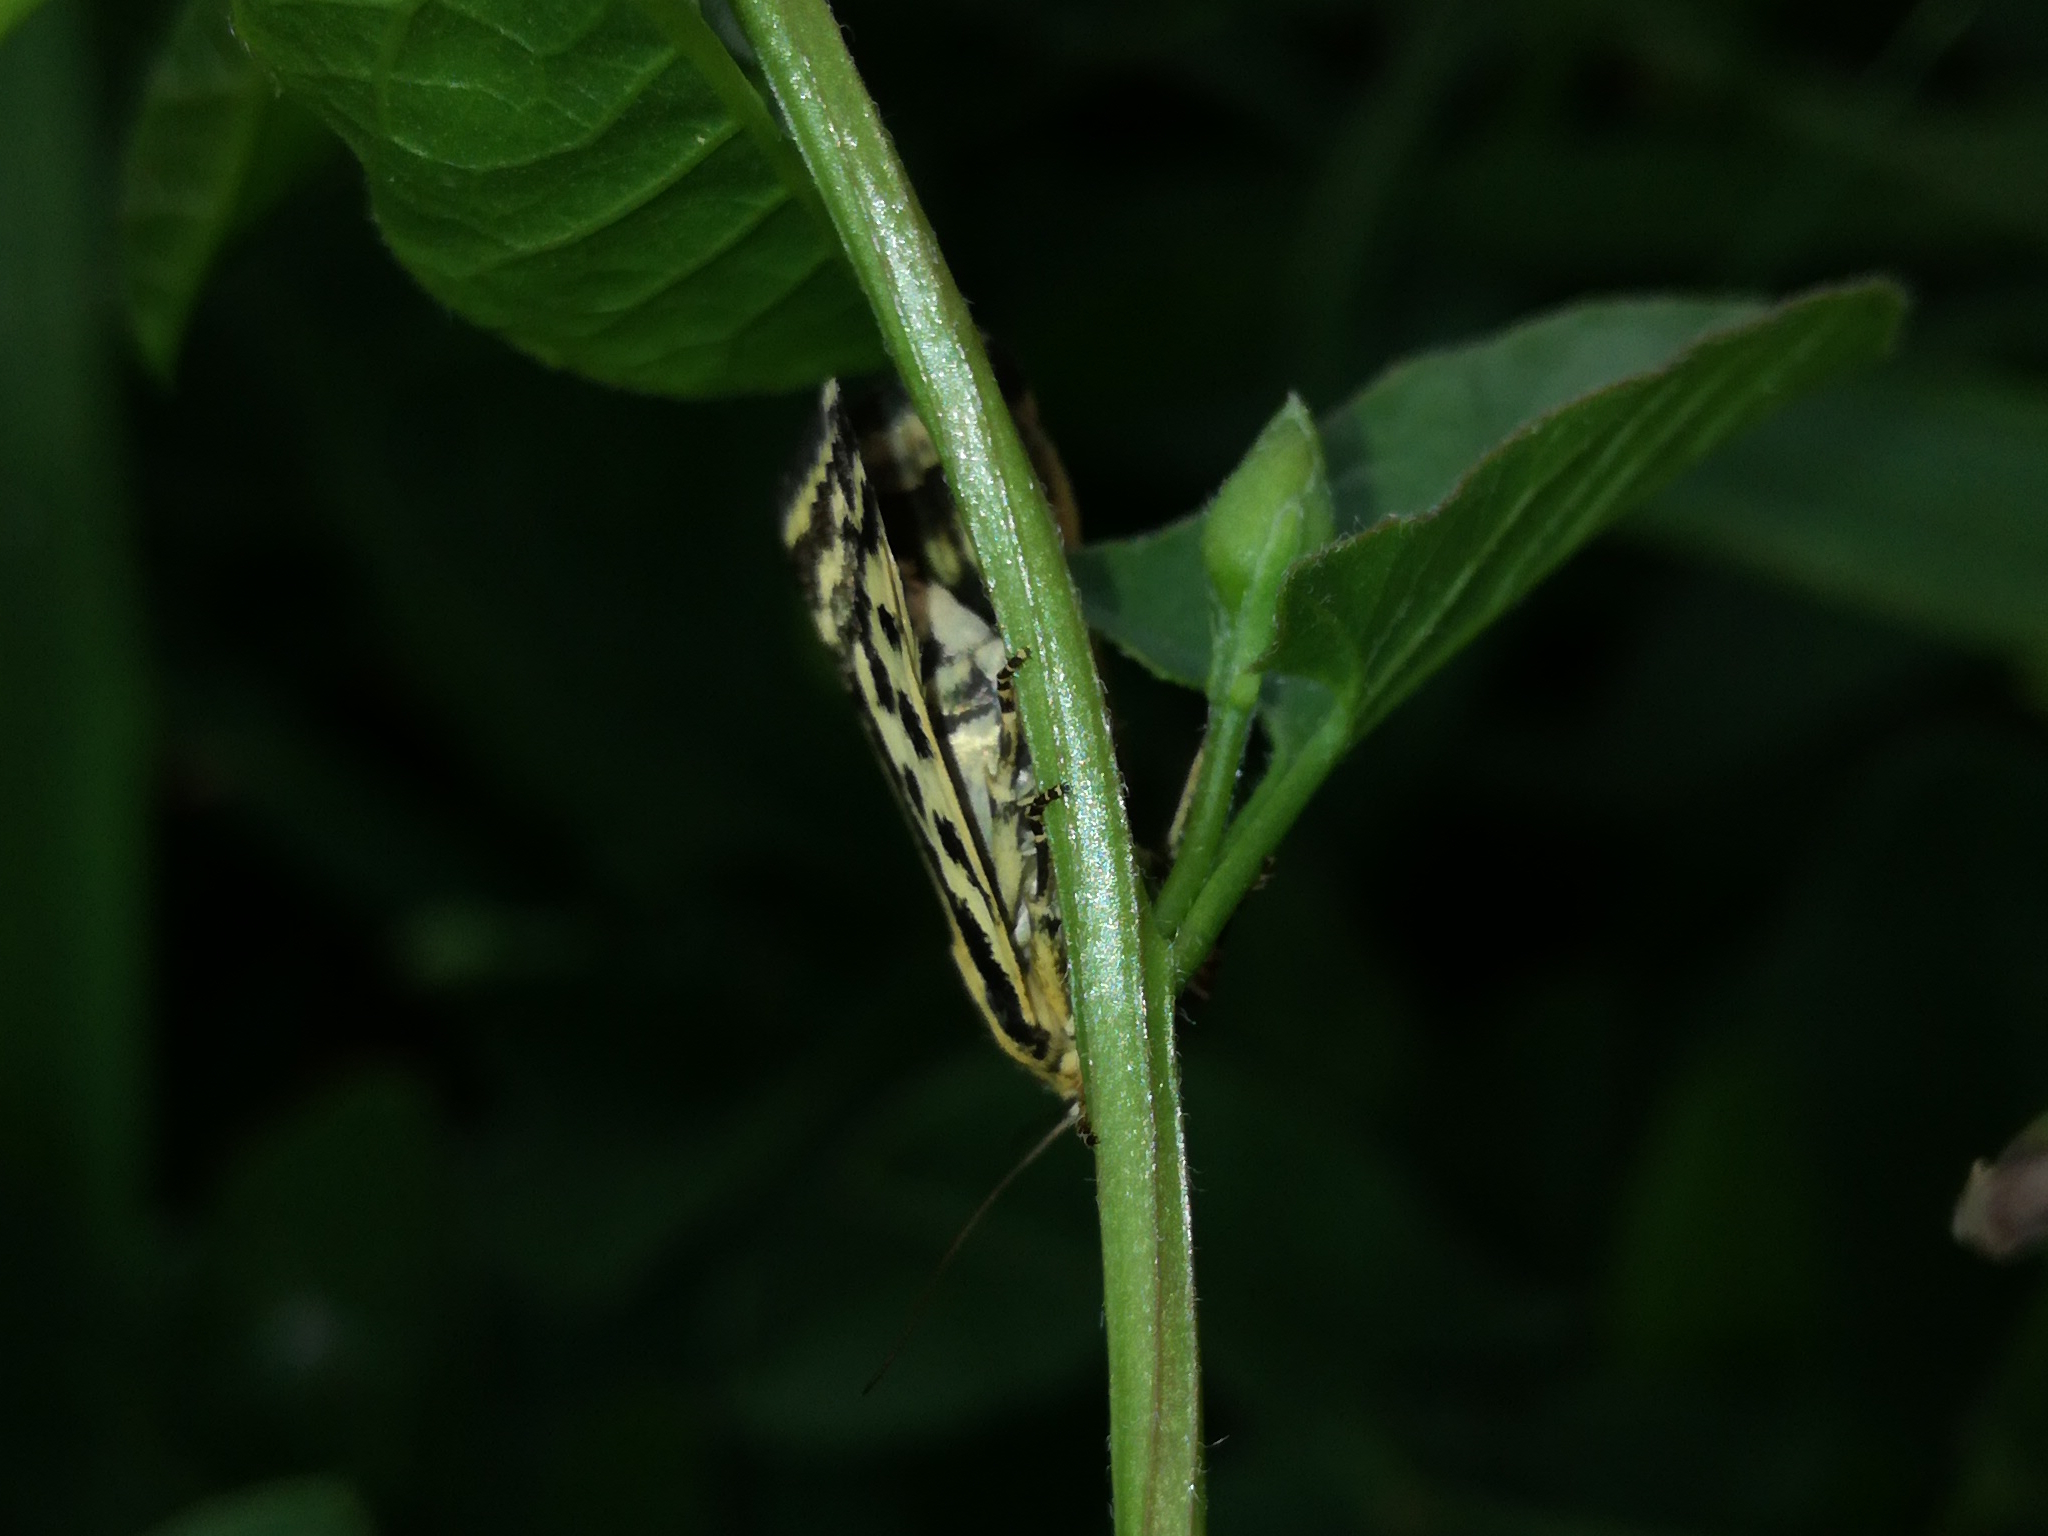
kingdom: Animalia
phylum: Arthropoda
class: Insecta
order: Lepidoptera
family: Noctuidae
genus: Acontia
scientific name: Acontia trabealis
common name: Spotted sulphur
